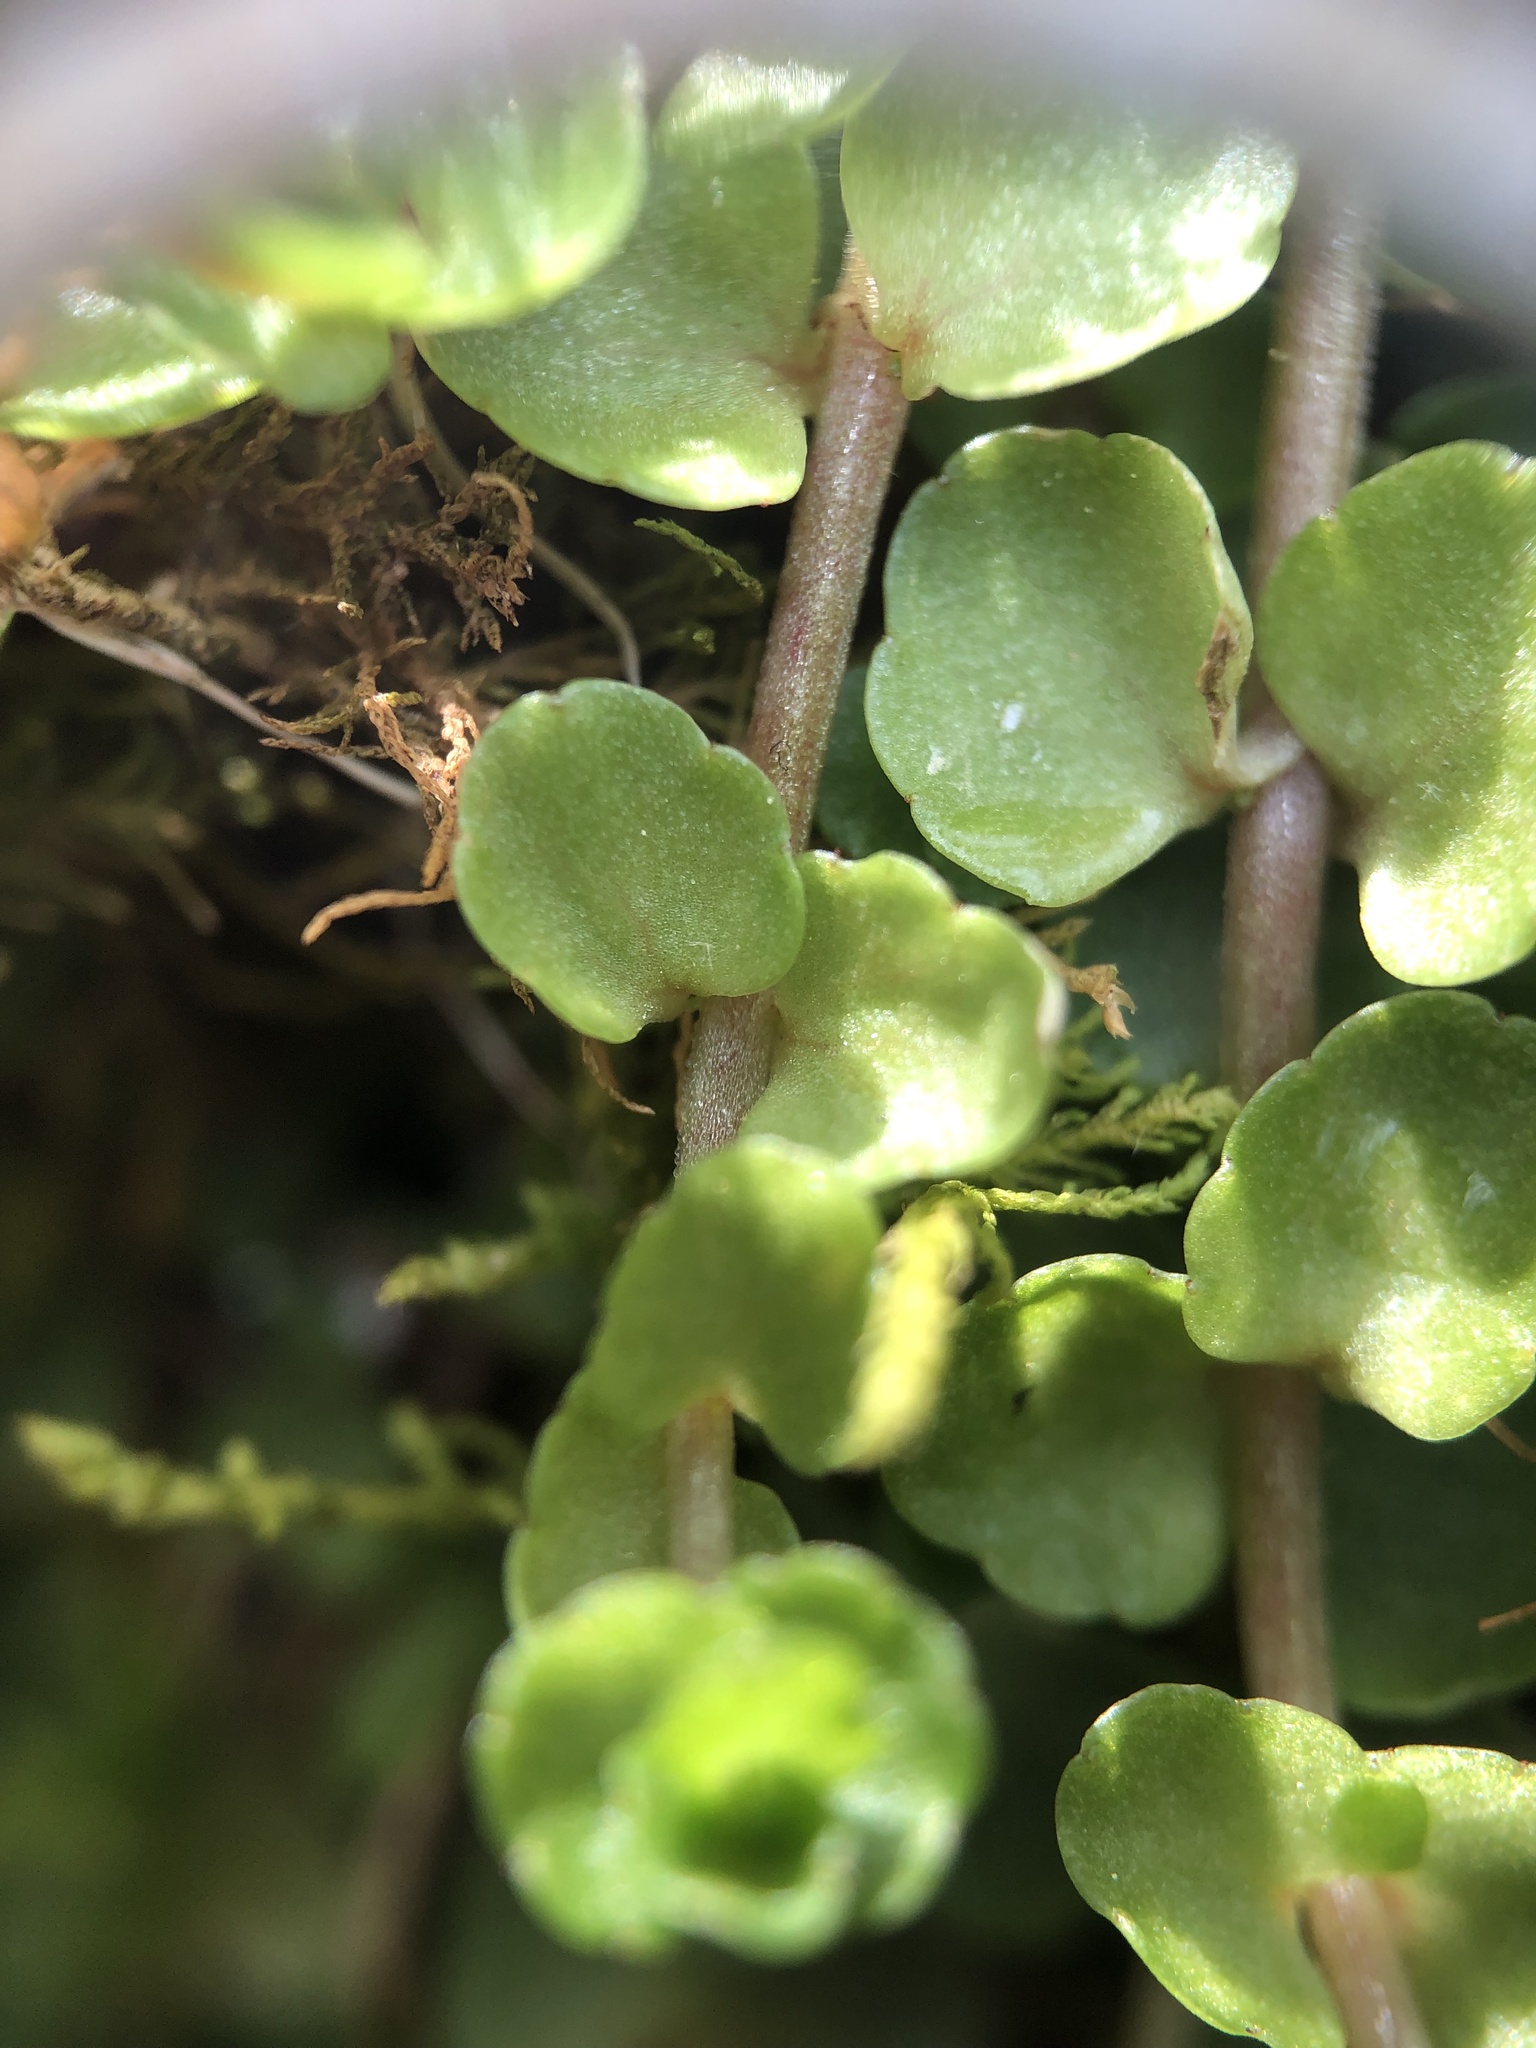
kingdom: Plantae
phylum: Tracheophyta
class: Magnoliopsida
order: Saxifragales
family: Saxifragaceae
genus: Chrysosplenium
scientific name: Chrysosplenium americanum
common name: American golden-saxifrage
